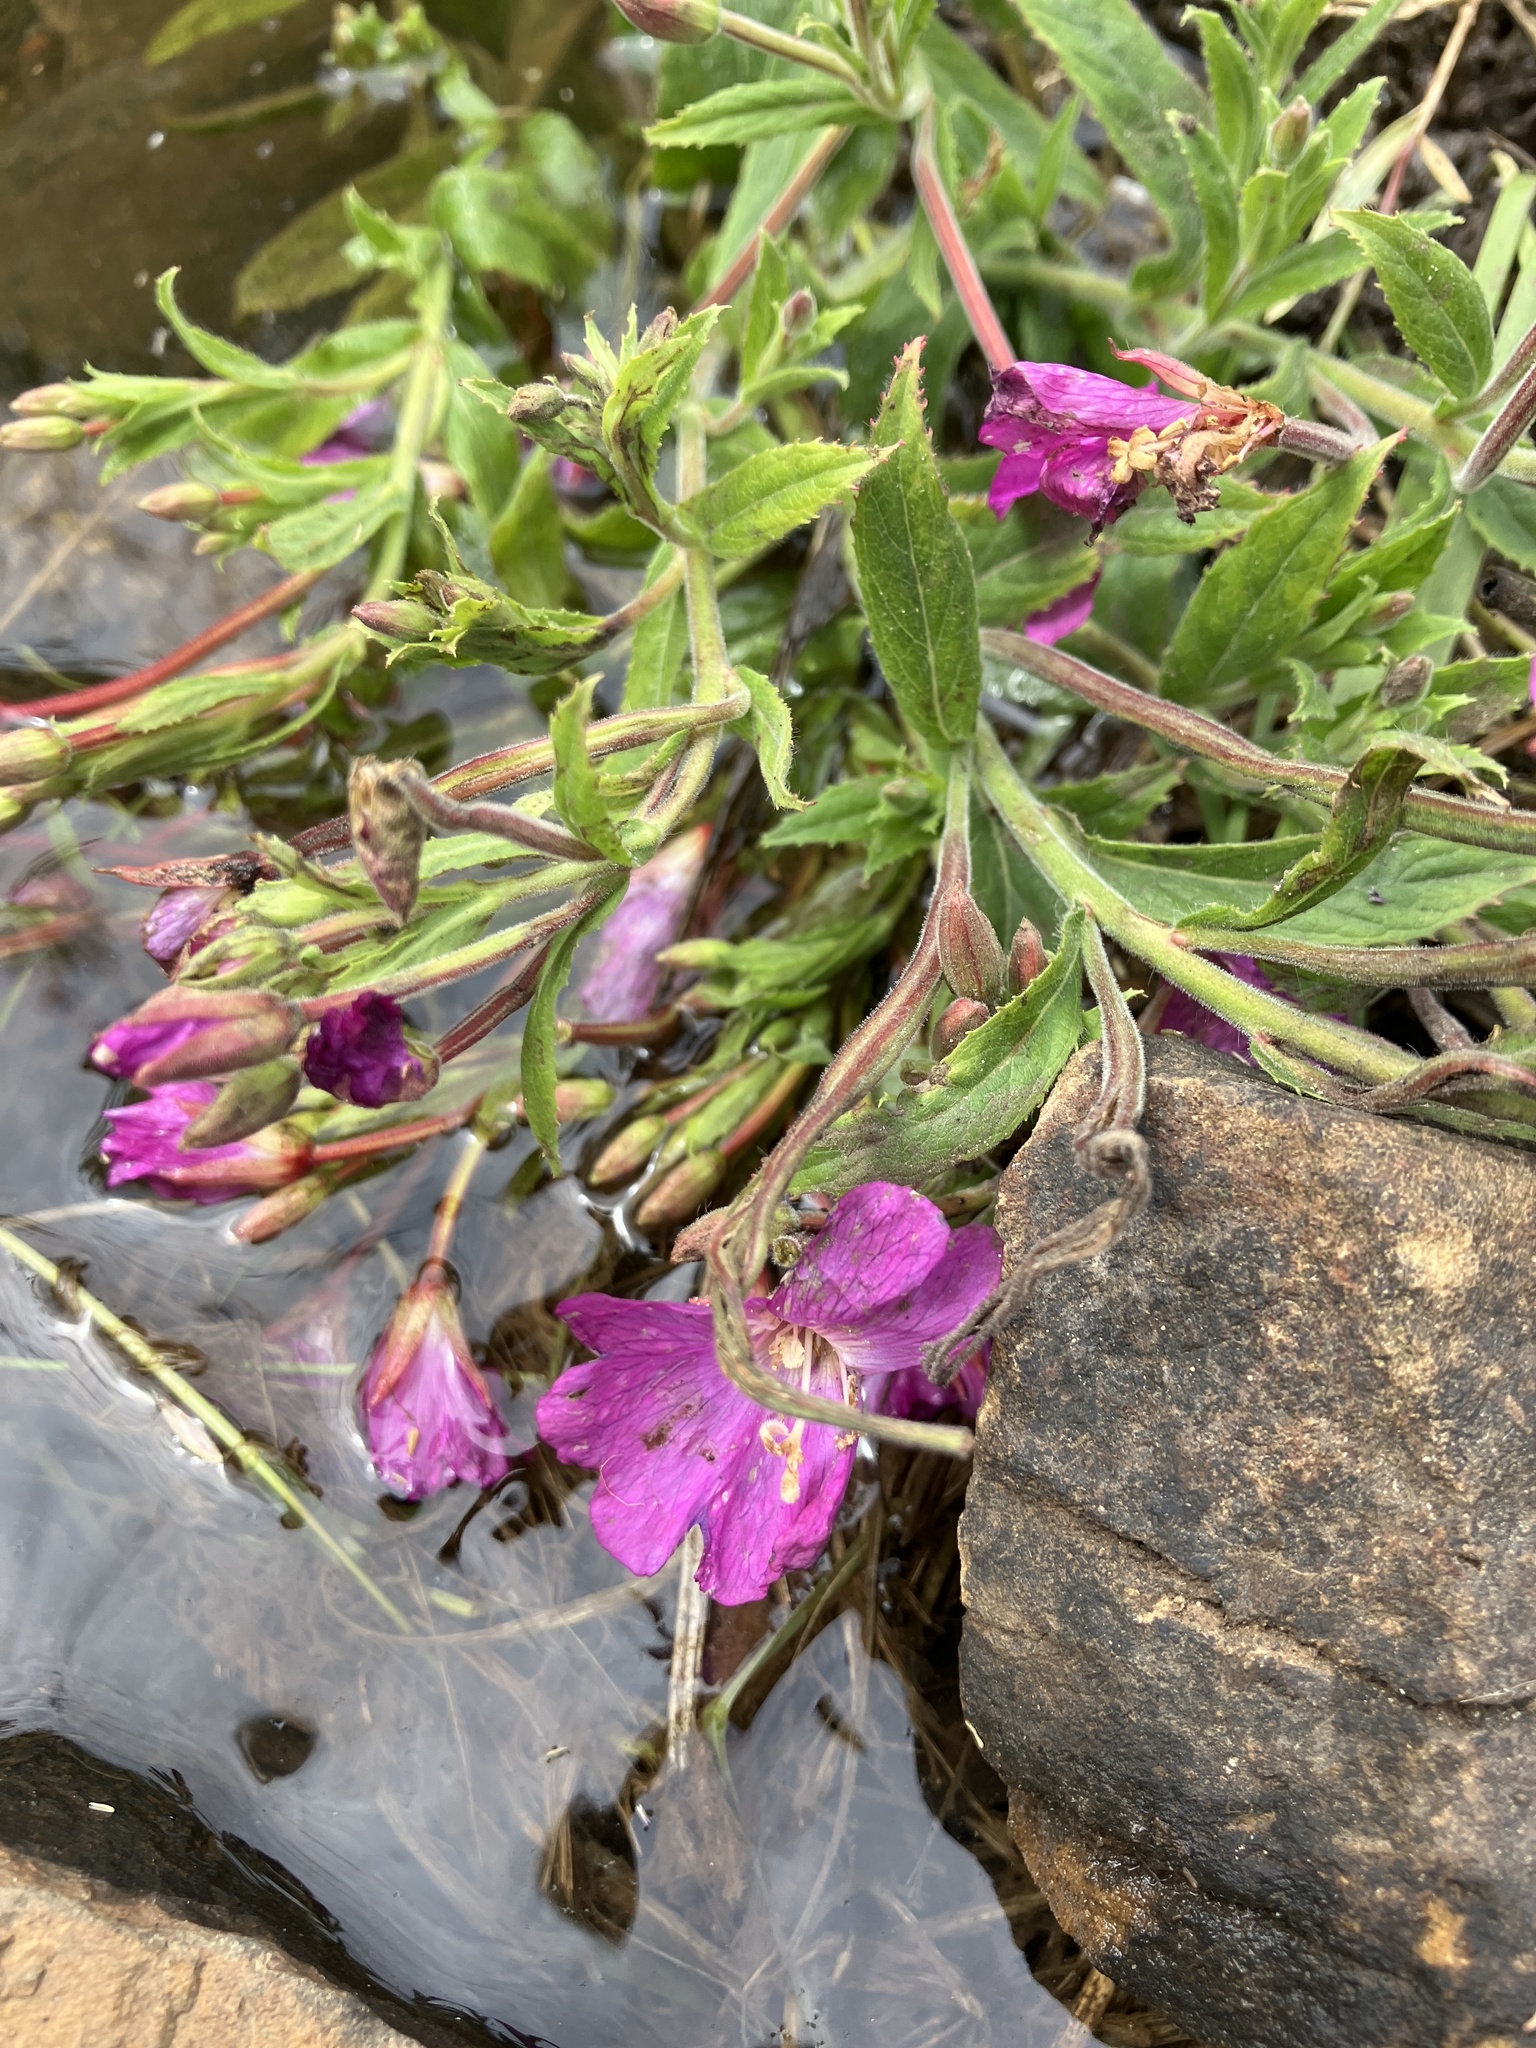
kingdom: Plantae
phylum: Tracheophyta
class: Magnoliopsida
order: Myrtales
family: Onagraceae
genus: Epilobium
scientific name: Epilobium hirsutum
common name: Great willowherb
